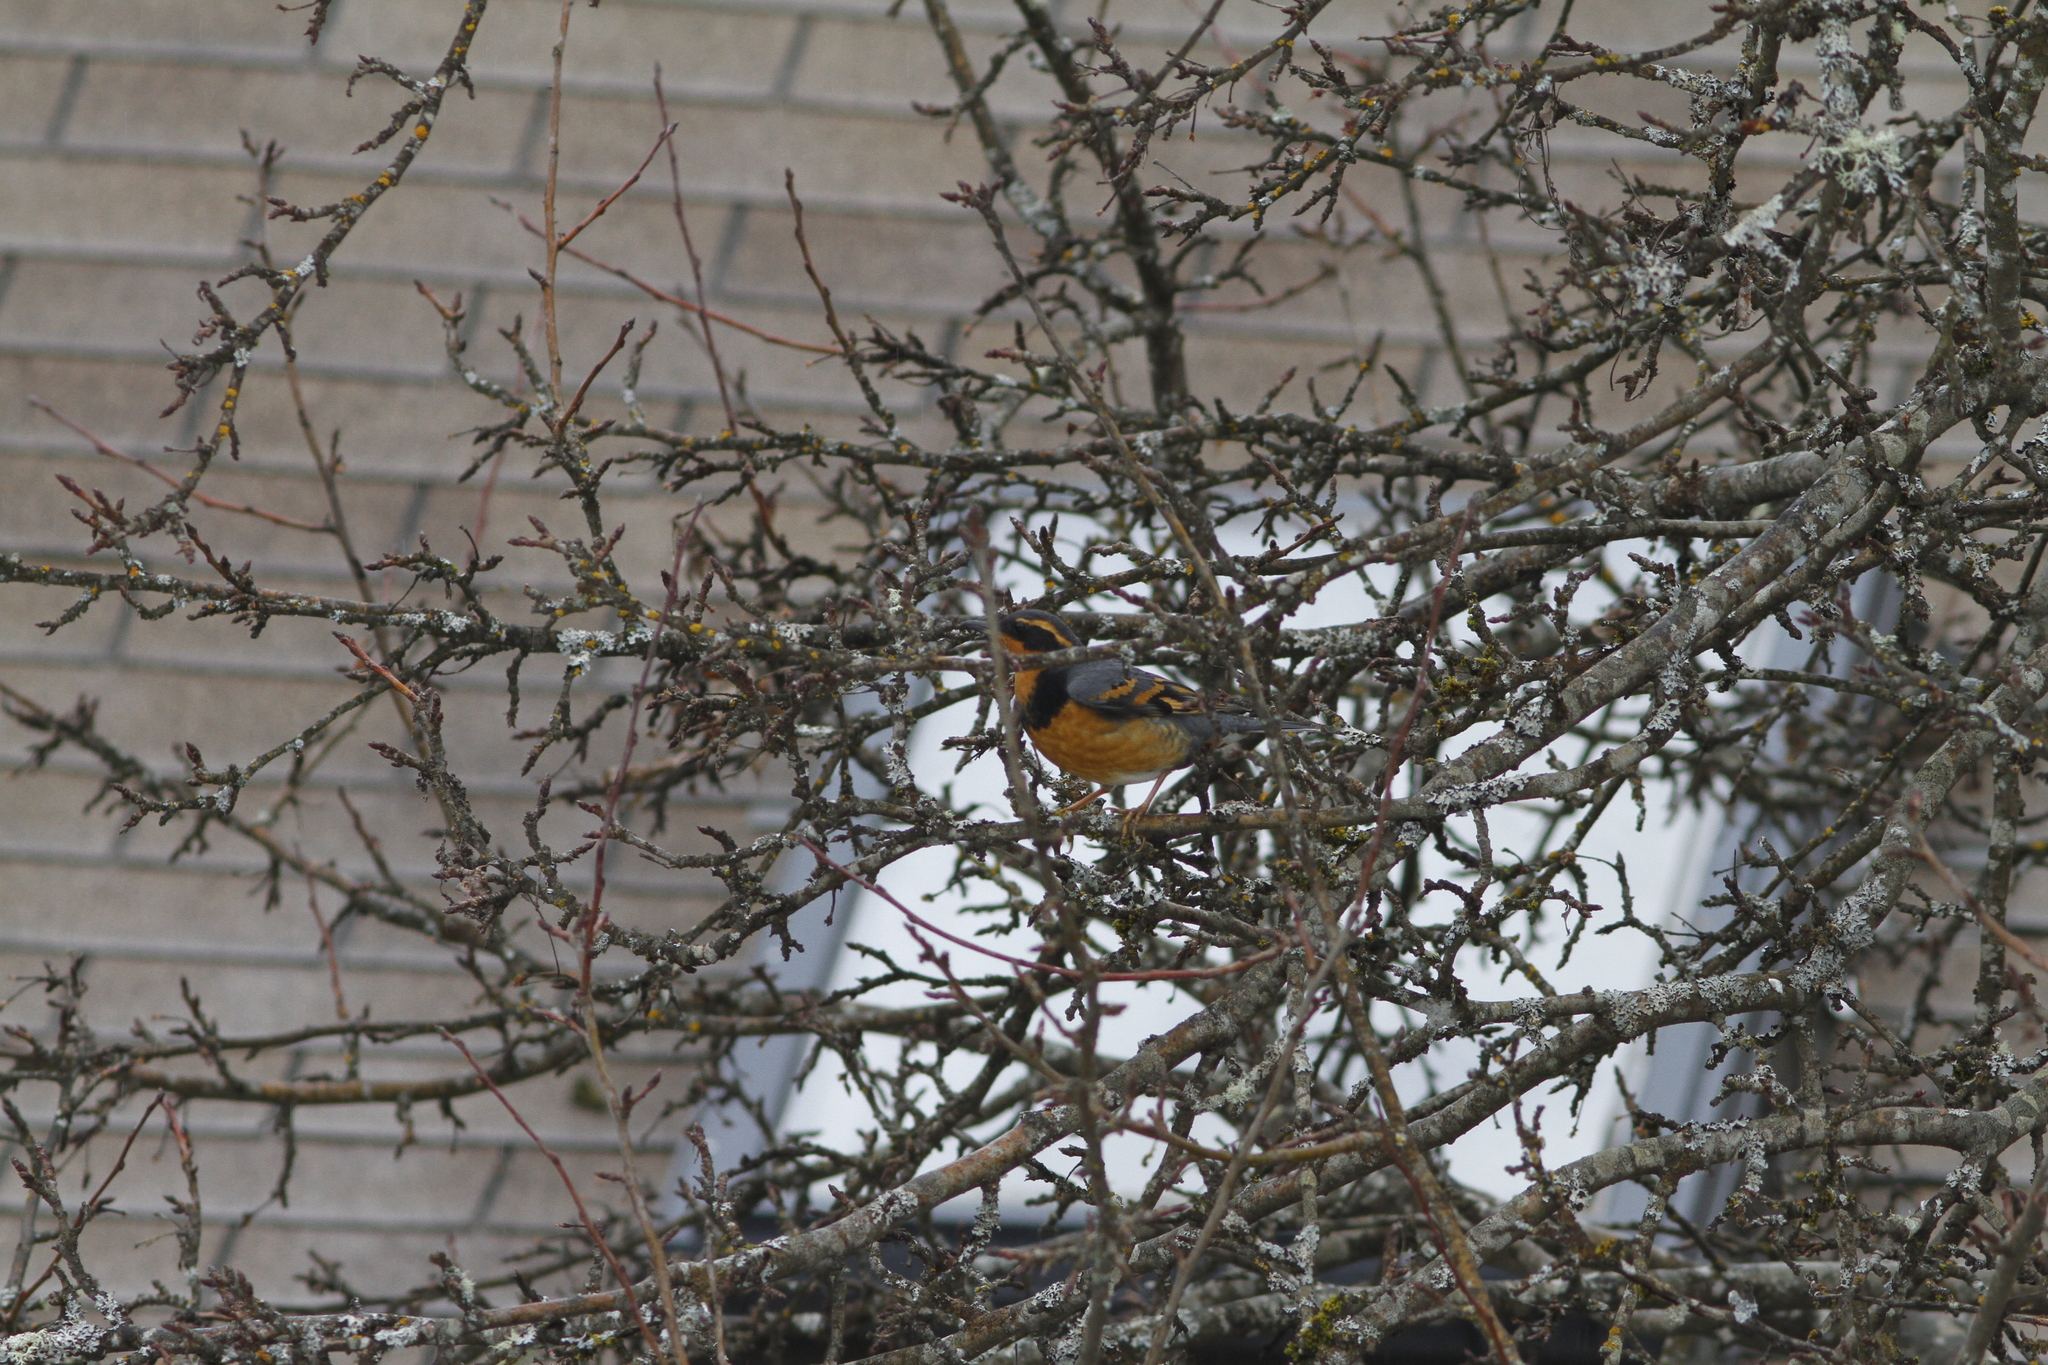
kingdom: Animalia
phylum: Chordata
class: Aves
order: Passeriformes
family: Turdidae
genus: Ixoreus
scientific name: Ixoreus naevius
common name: Varied thrush
